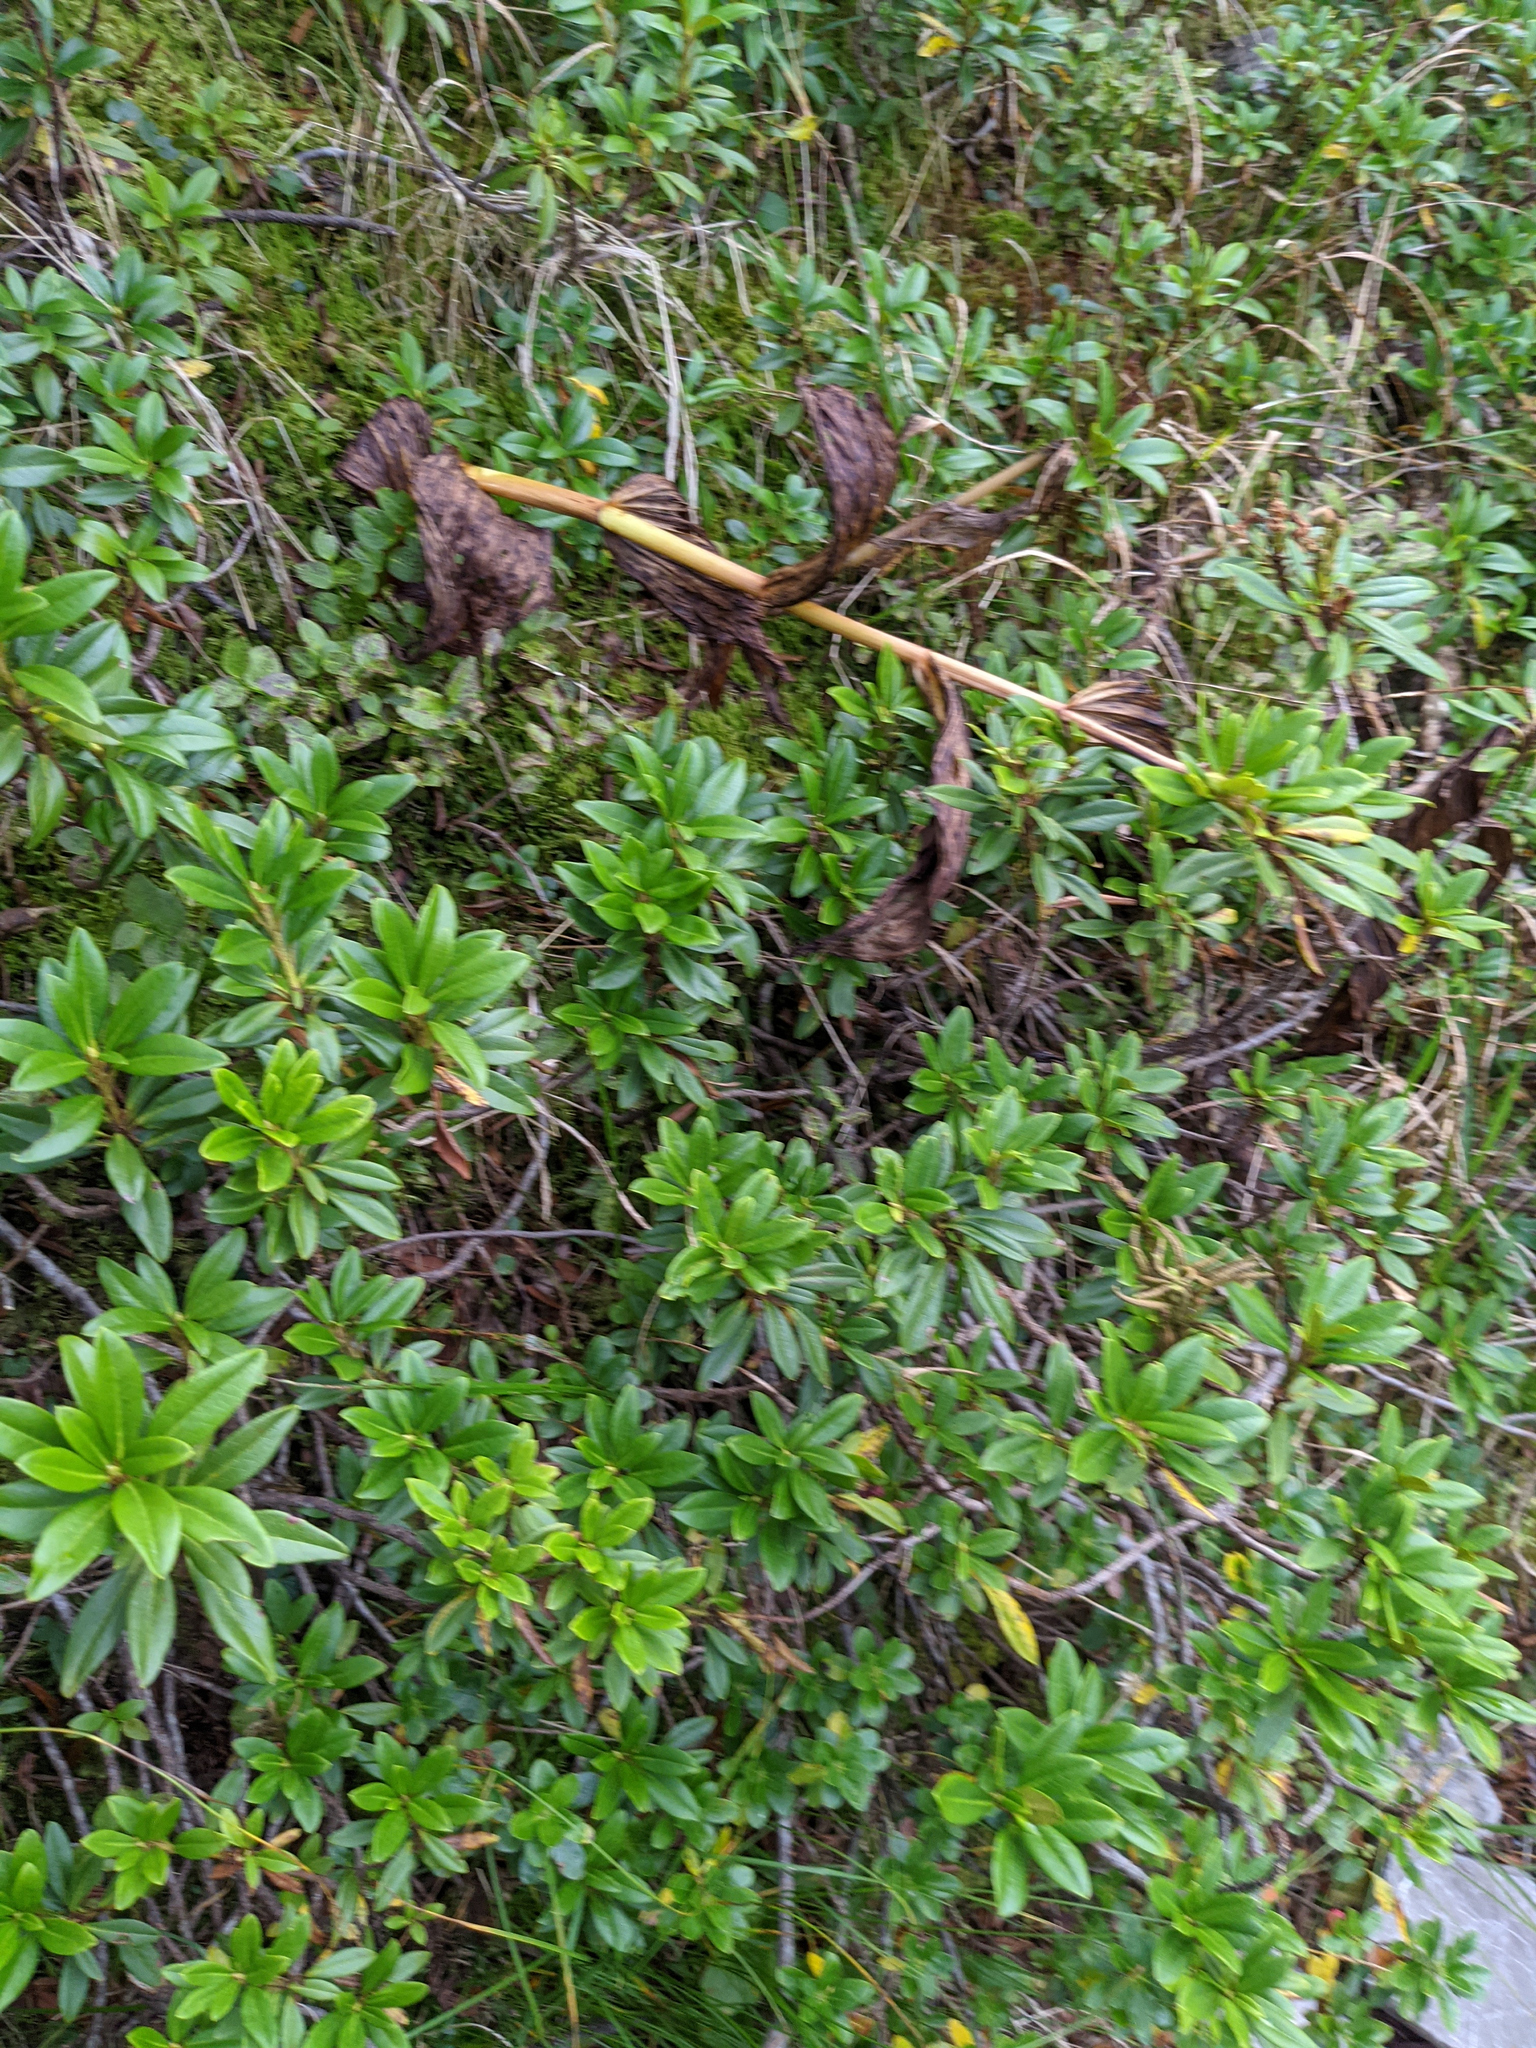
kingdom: Plantae
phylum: Tracheophyta
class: Magnoliopsida
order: Ericales
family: Ericaceae
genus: Rhododendron
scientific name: Rhododendron ferrugineum
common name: Alpenrose
